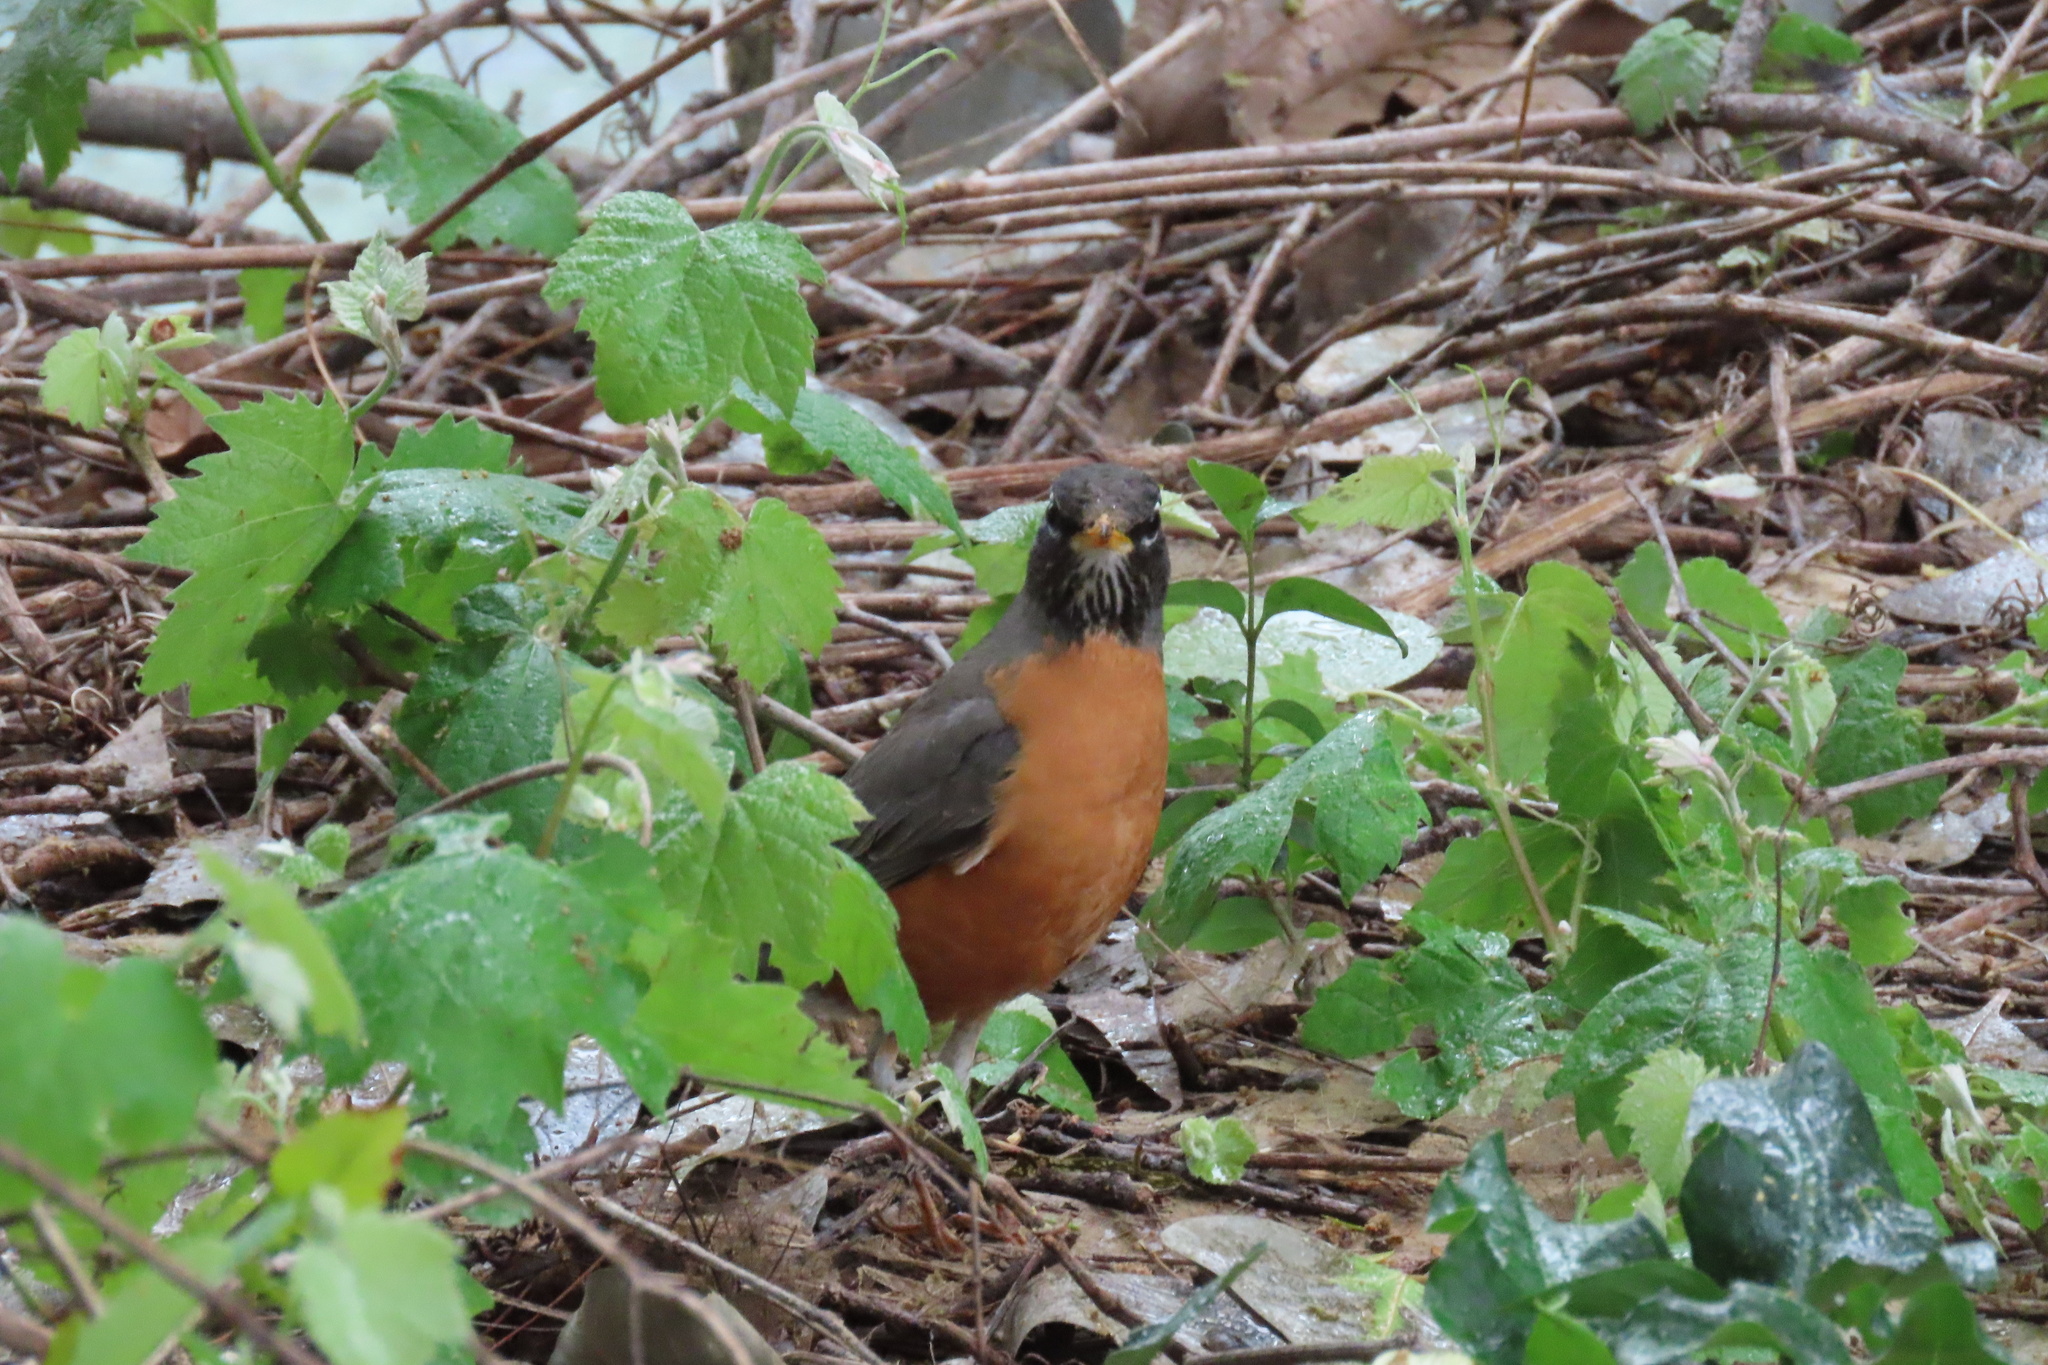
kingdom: Animalia
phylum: Chordata
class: Aves
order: Passeriformes
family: Turdidae
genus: Turdus
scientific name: Turdus migratorius
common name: American robin
